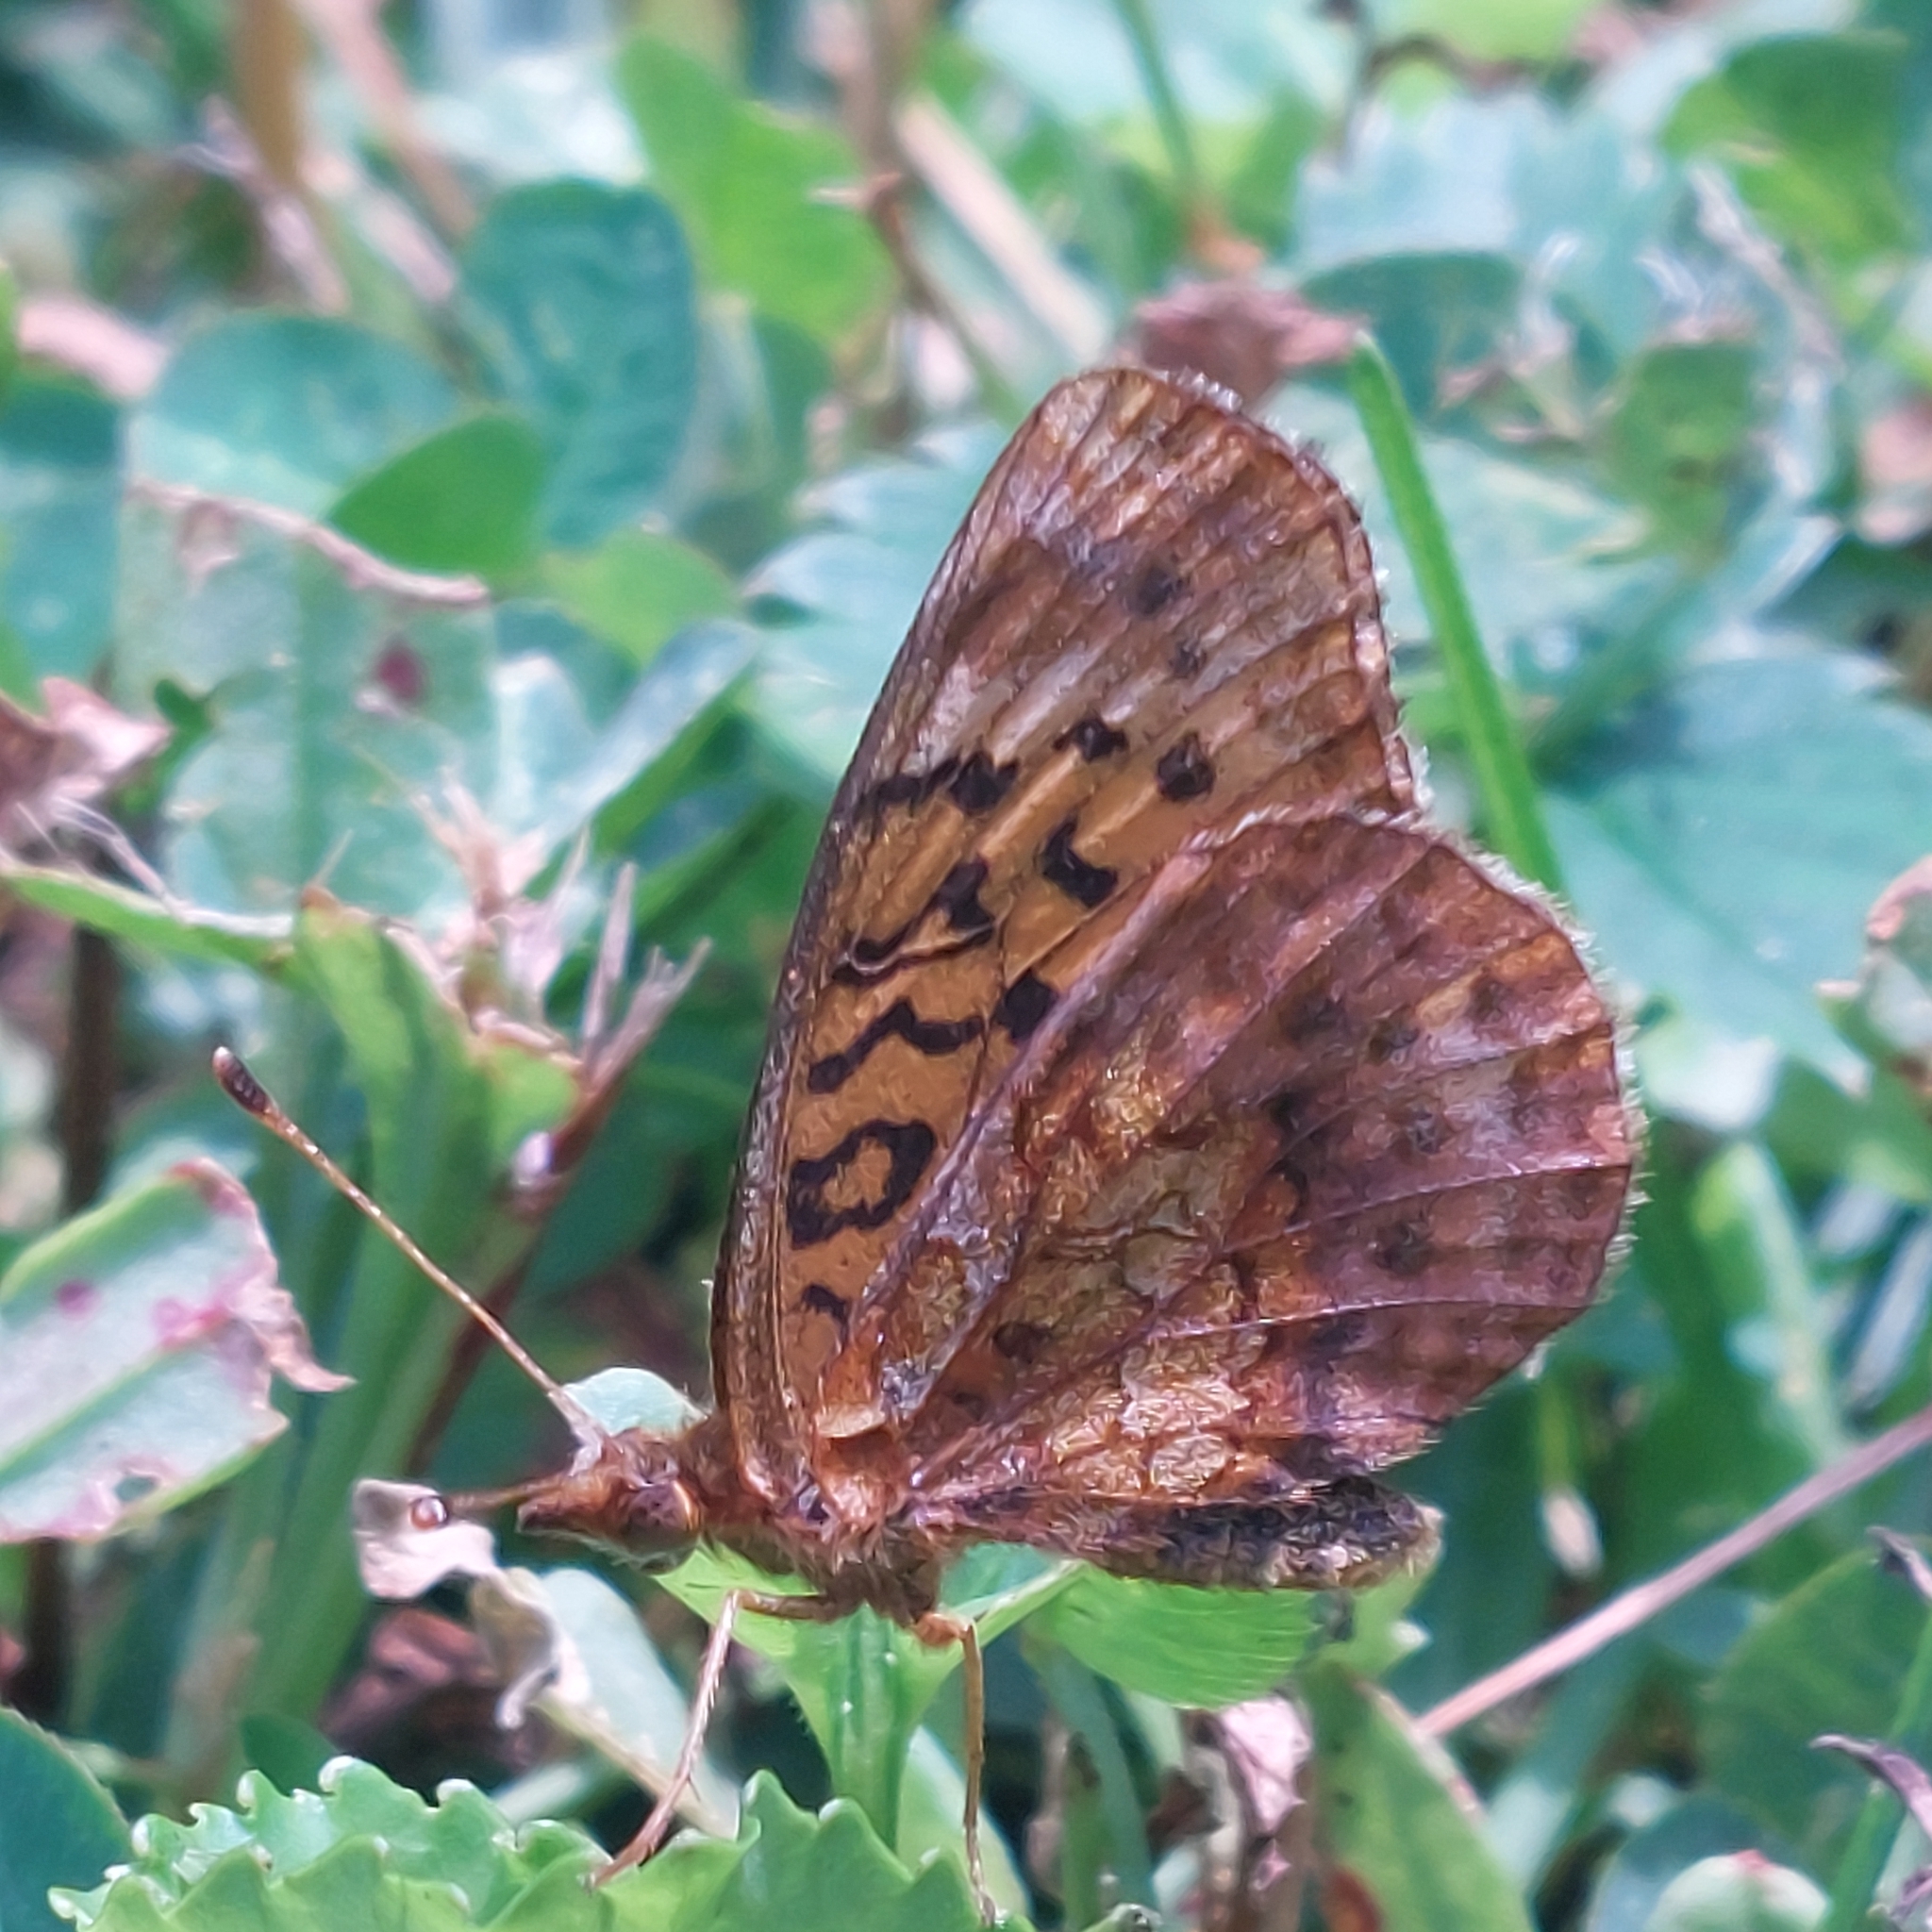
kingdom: Animalia
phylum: Arthropoda
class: Insecta
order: Lepidoptera
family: Nymphalidae
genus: Clossiana
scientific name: Clossiana toddi
